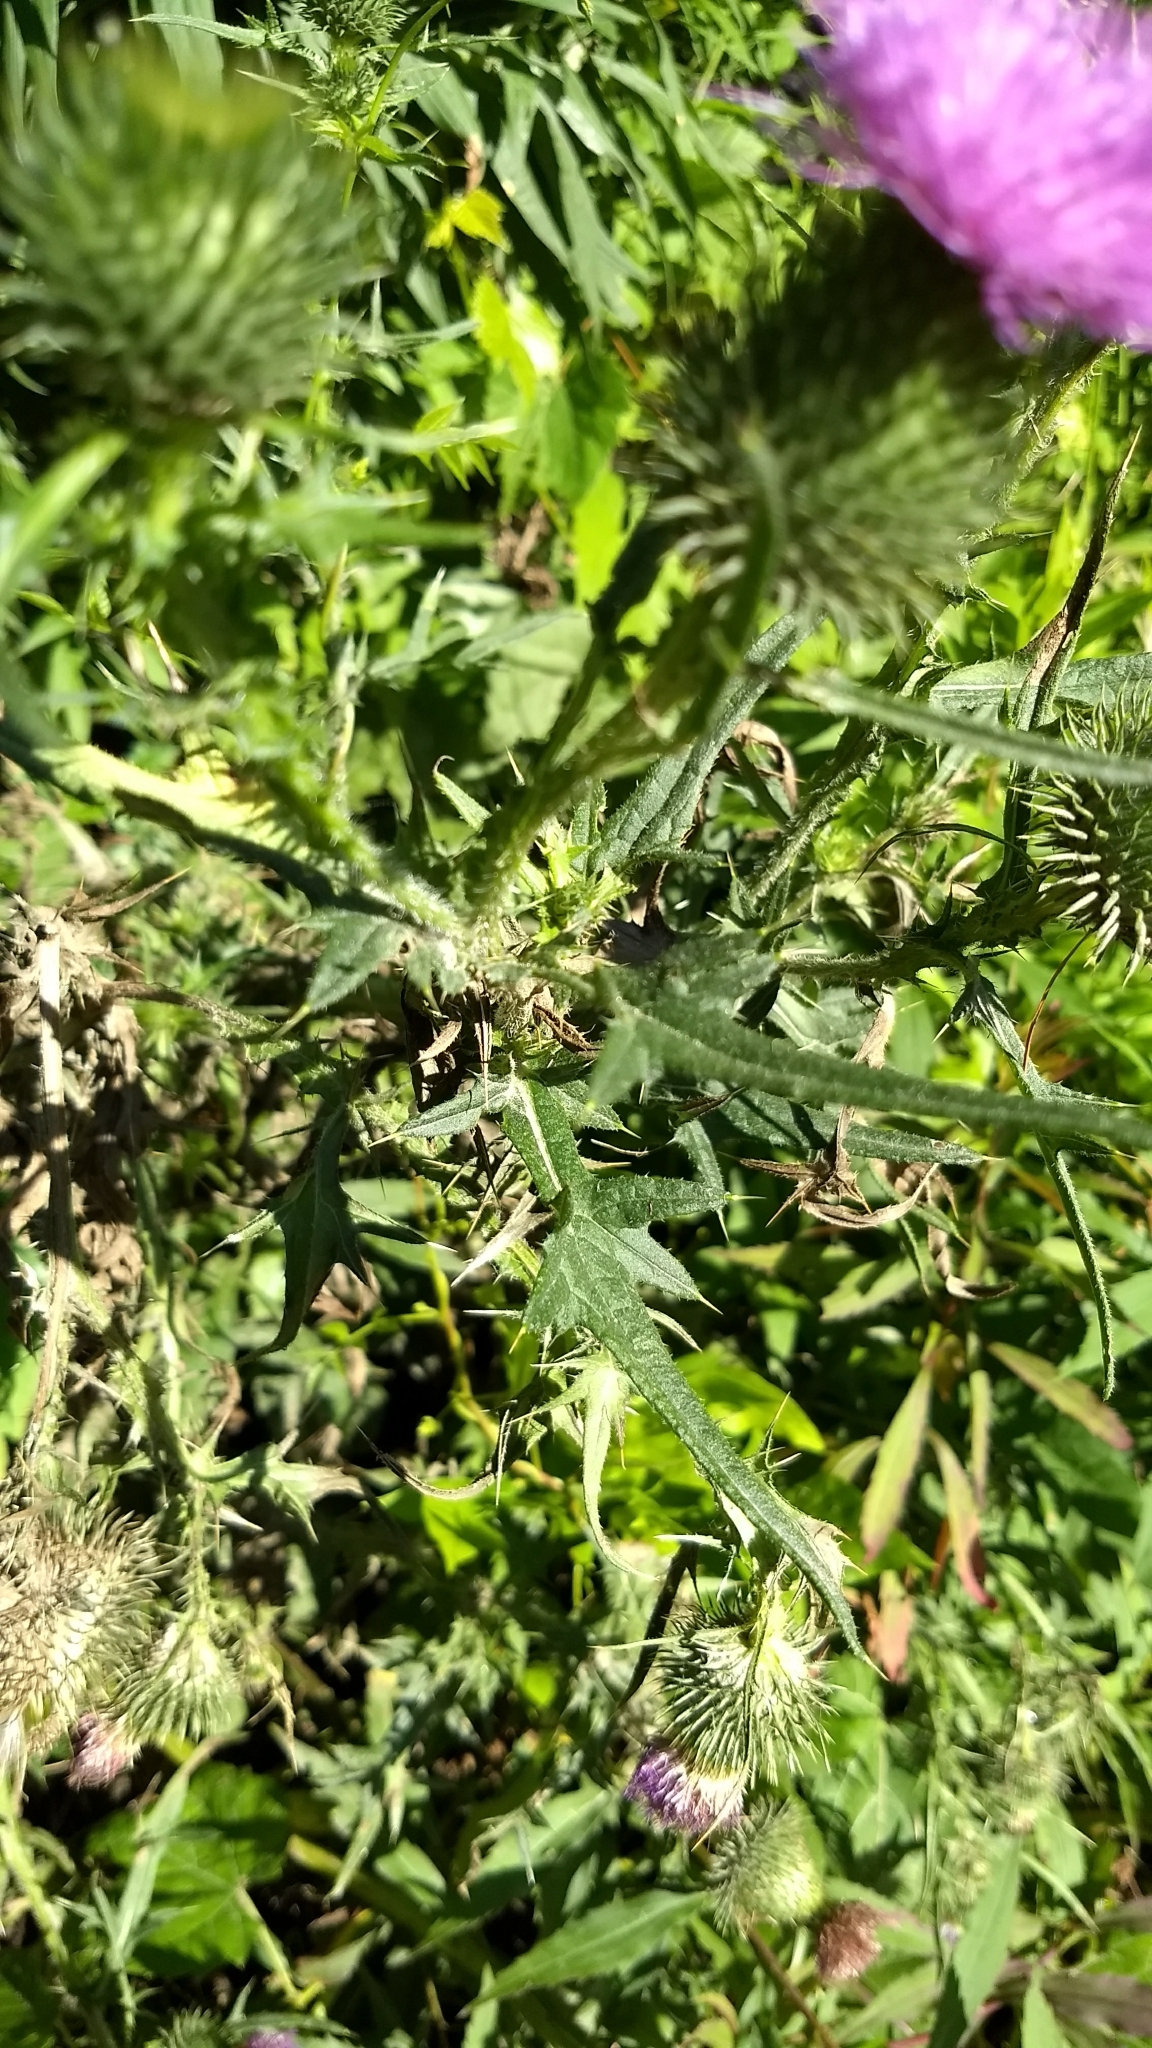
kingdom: Plantae
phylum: Tracheophyta
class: Magnoliopsida
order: Asterales
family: Asteraceae
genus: Cirsium
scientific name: Cirsium vulgare
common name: Bull thistle
